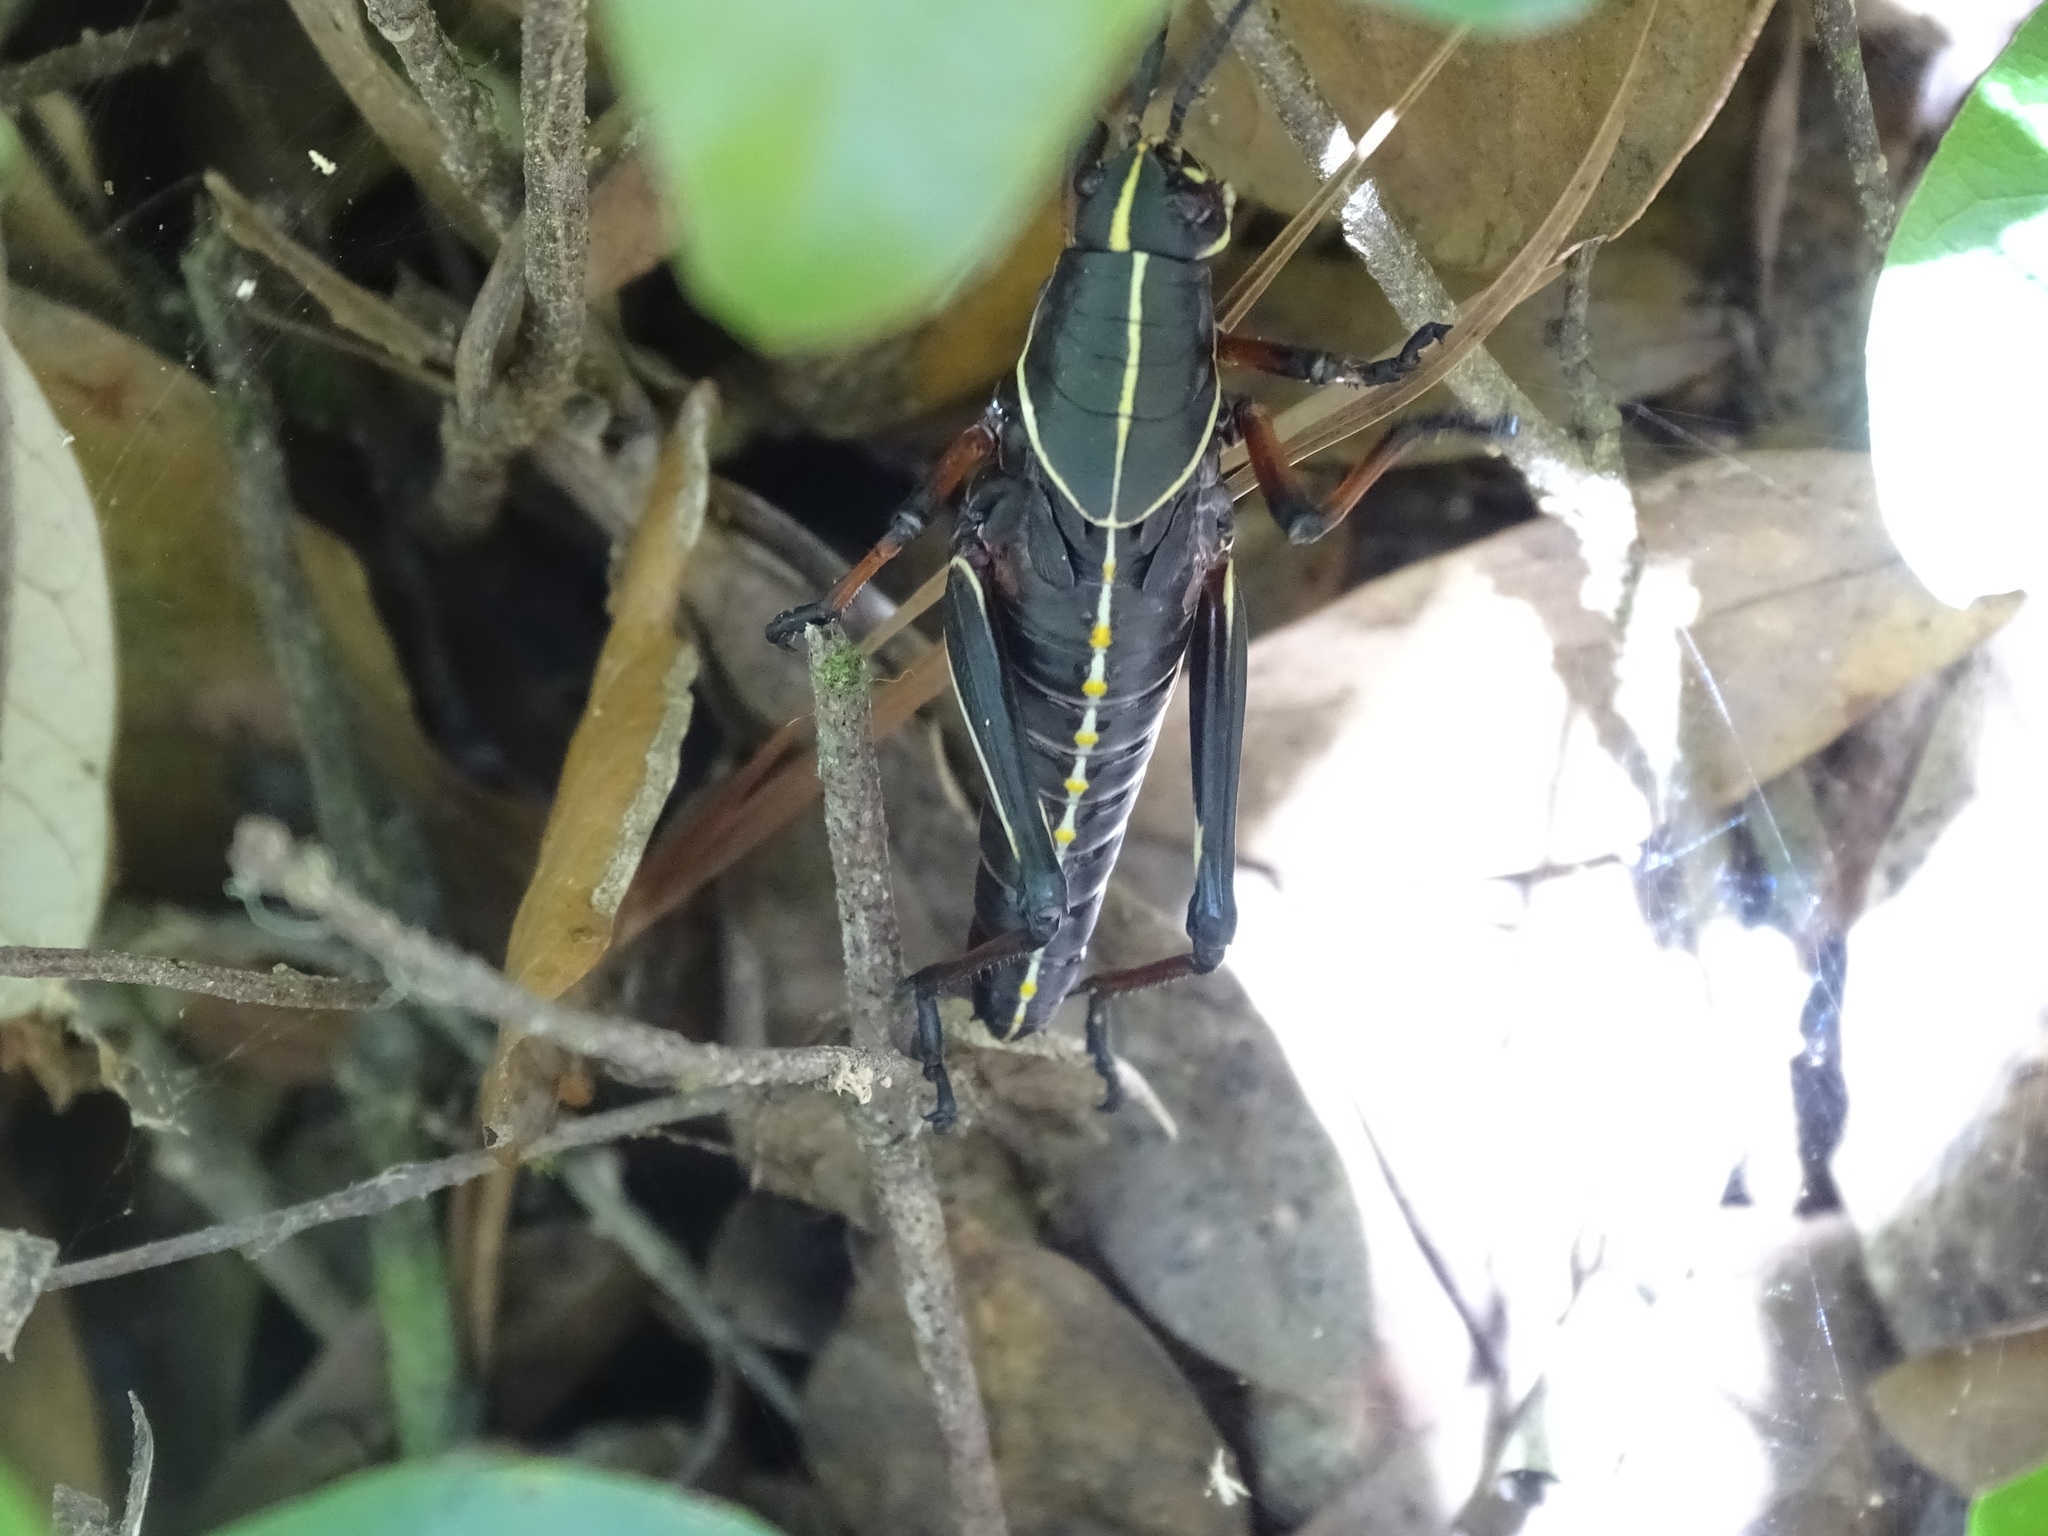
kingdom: Animalia
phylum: Arthropoda
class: Insecta
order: Orthoptera
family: Romaleidae
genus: Romalea
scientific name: Romalea microptera
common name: Eastern lubber grasshopper
